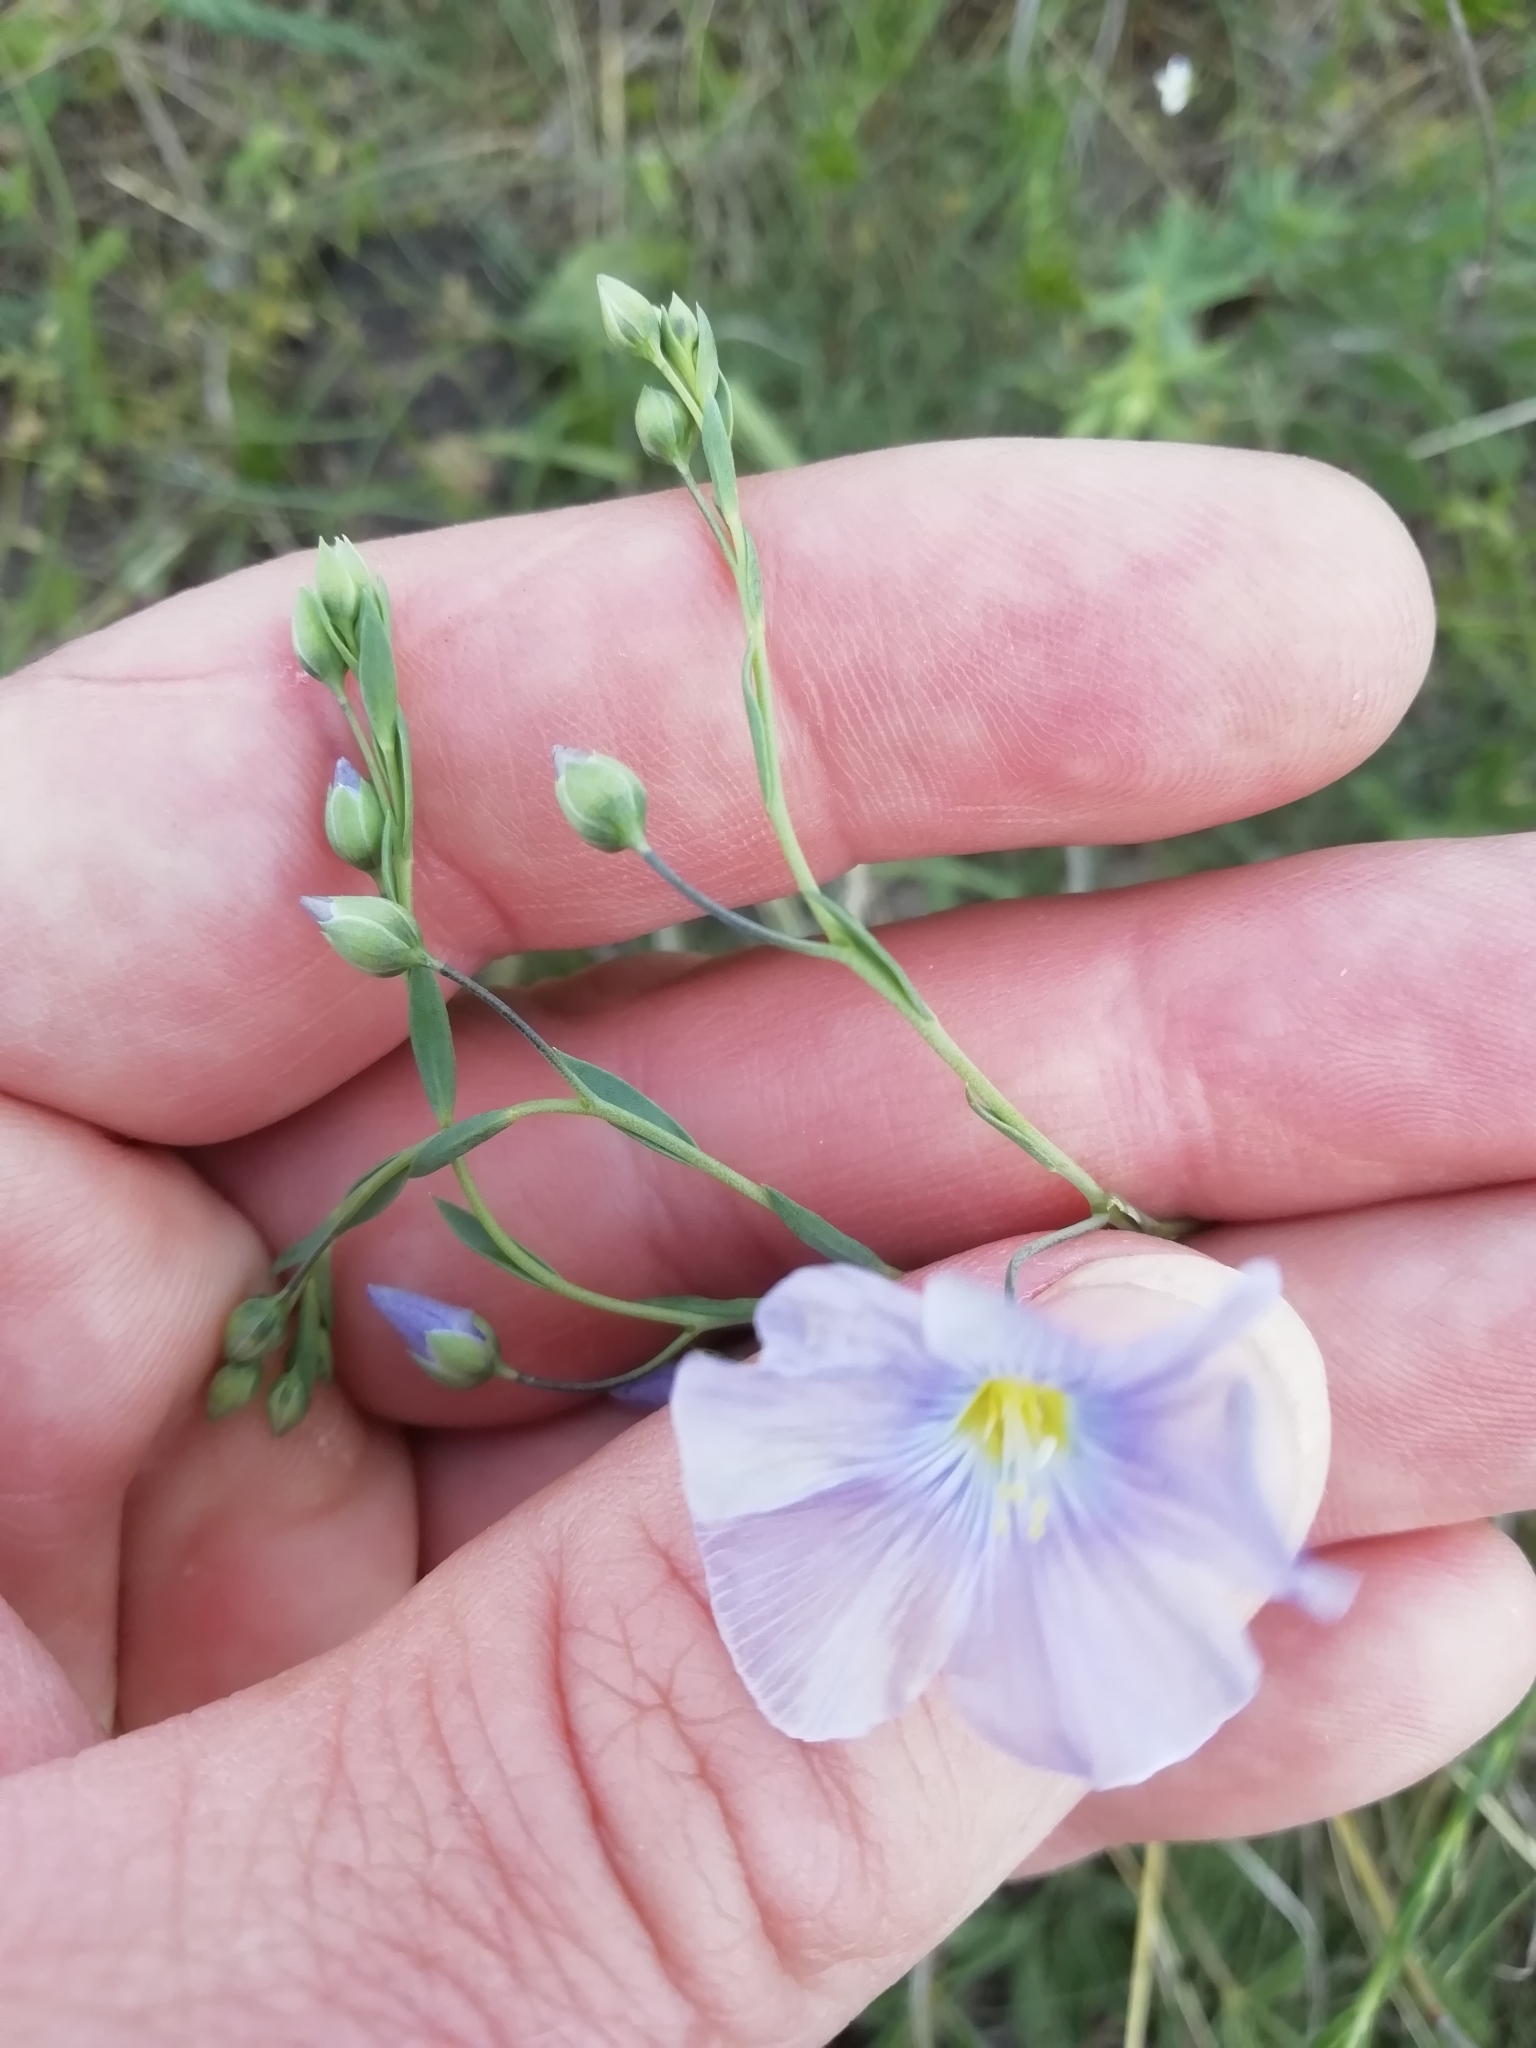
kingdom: Plantae
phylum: Tracheophyta
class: Magnoliopsida
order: Malpighiales
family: Linaceae
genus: Linum
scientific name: Linum austriacum
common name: Austrian flax
